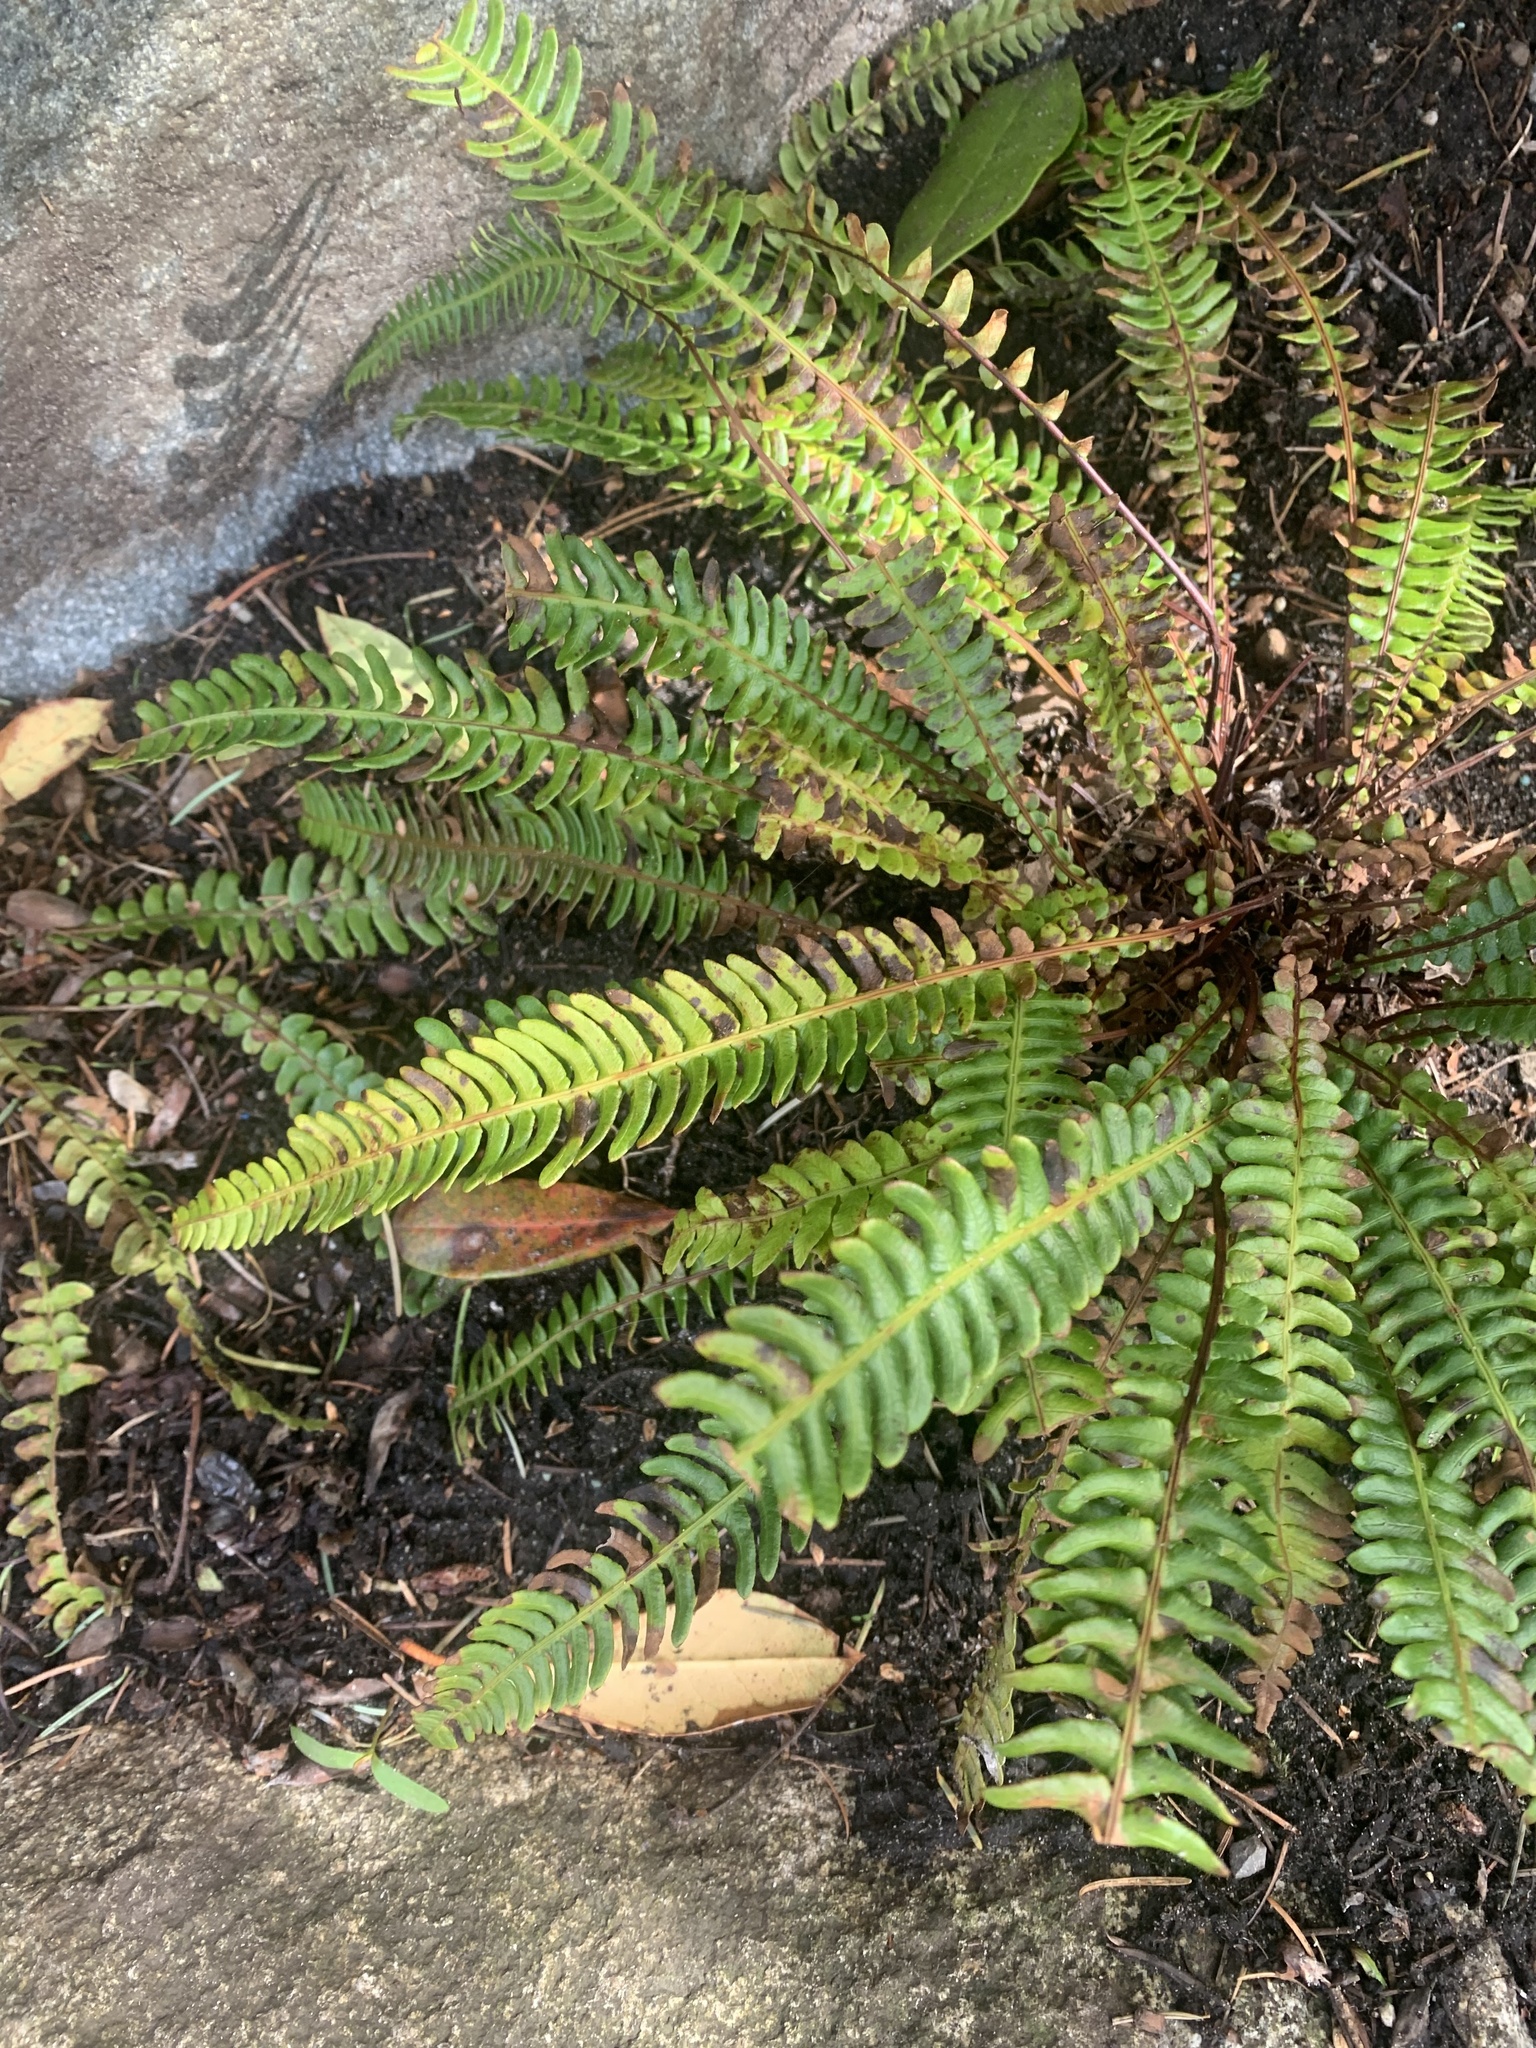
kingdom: Plantae
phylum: Tracheophyta
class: Polypodiopsida
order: Polypodiales
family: Blechnaceae
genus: Struthiopteris
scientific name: Struthiopteris spicant
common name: Deer fern
